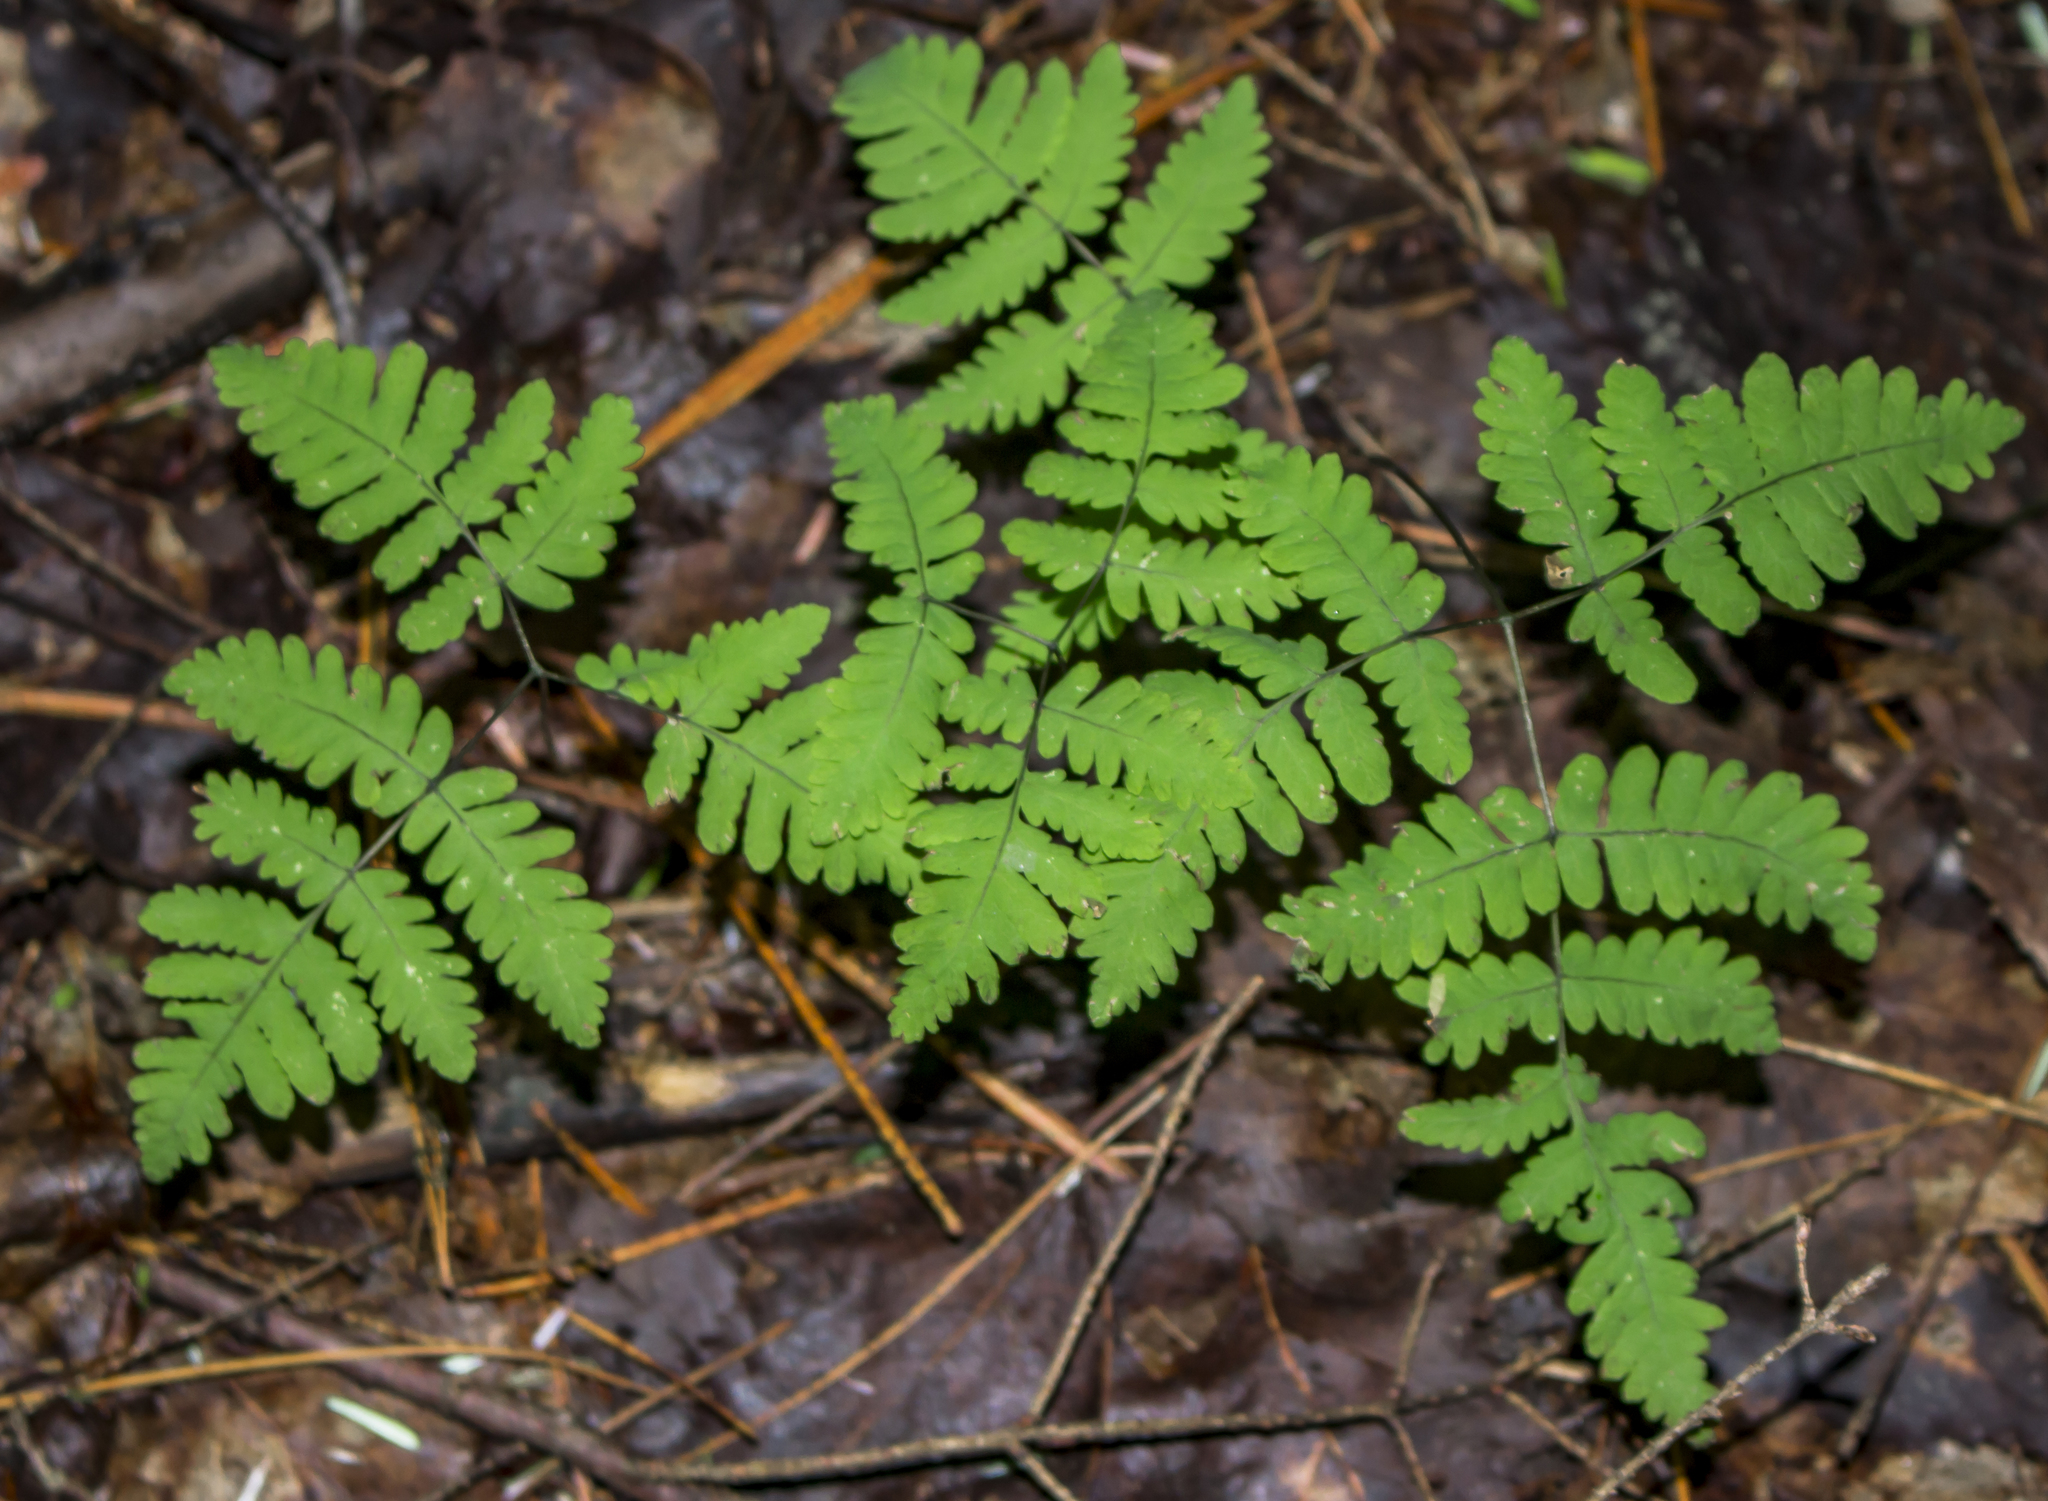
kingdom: Plantae
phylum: Tracheophyta
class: Polypodiopsida
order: Polypodiales
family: Cystopteridaceae
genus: Gymnocarpium
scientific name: Gymnocarpium dryopteris
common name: Oak fern
